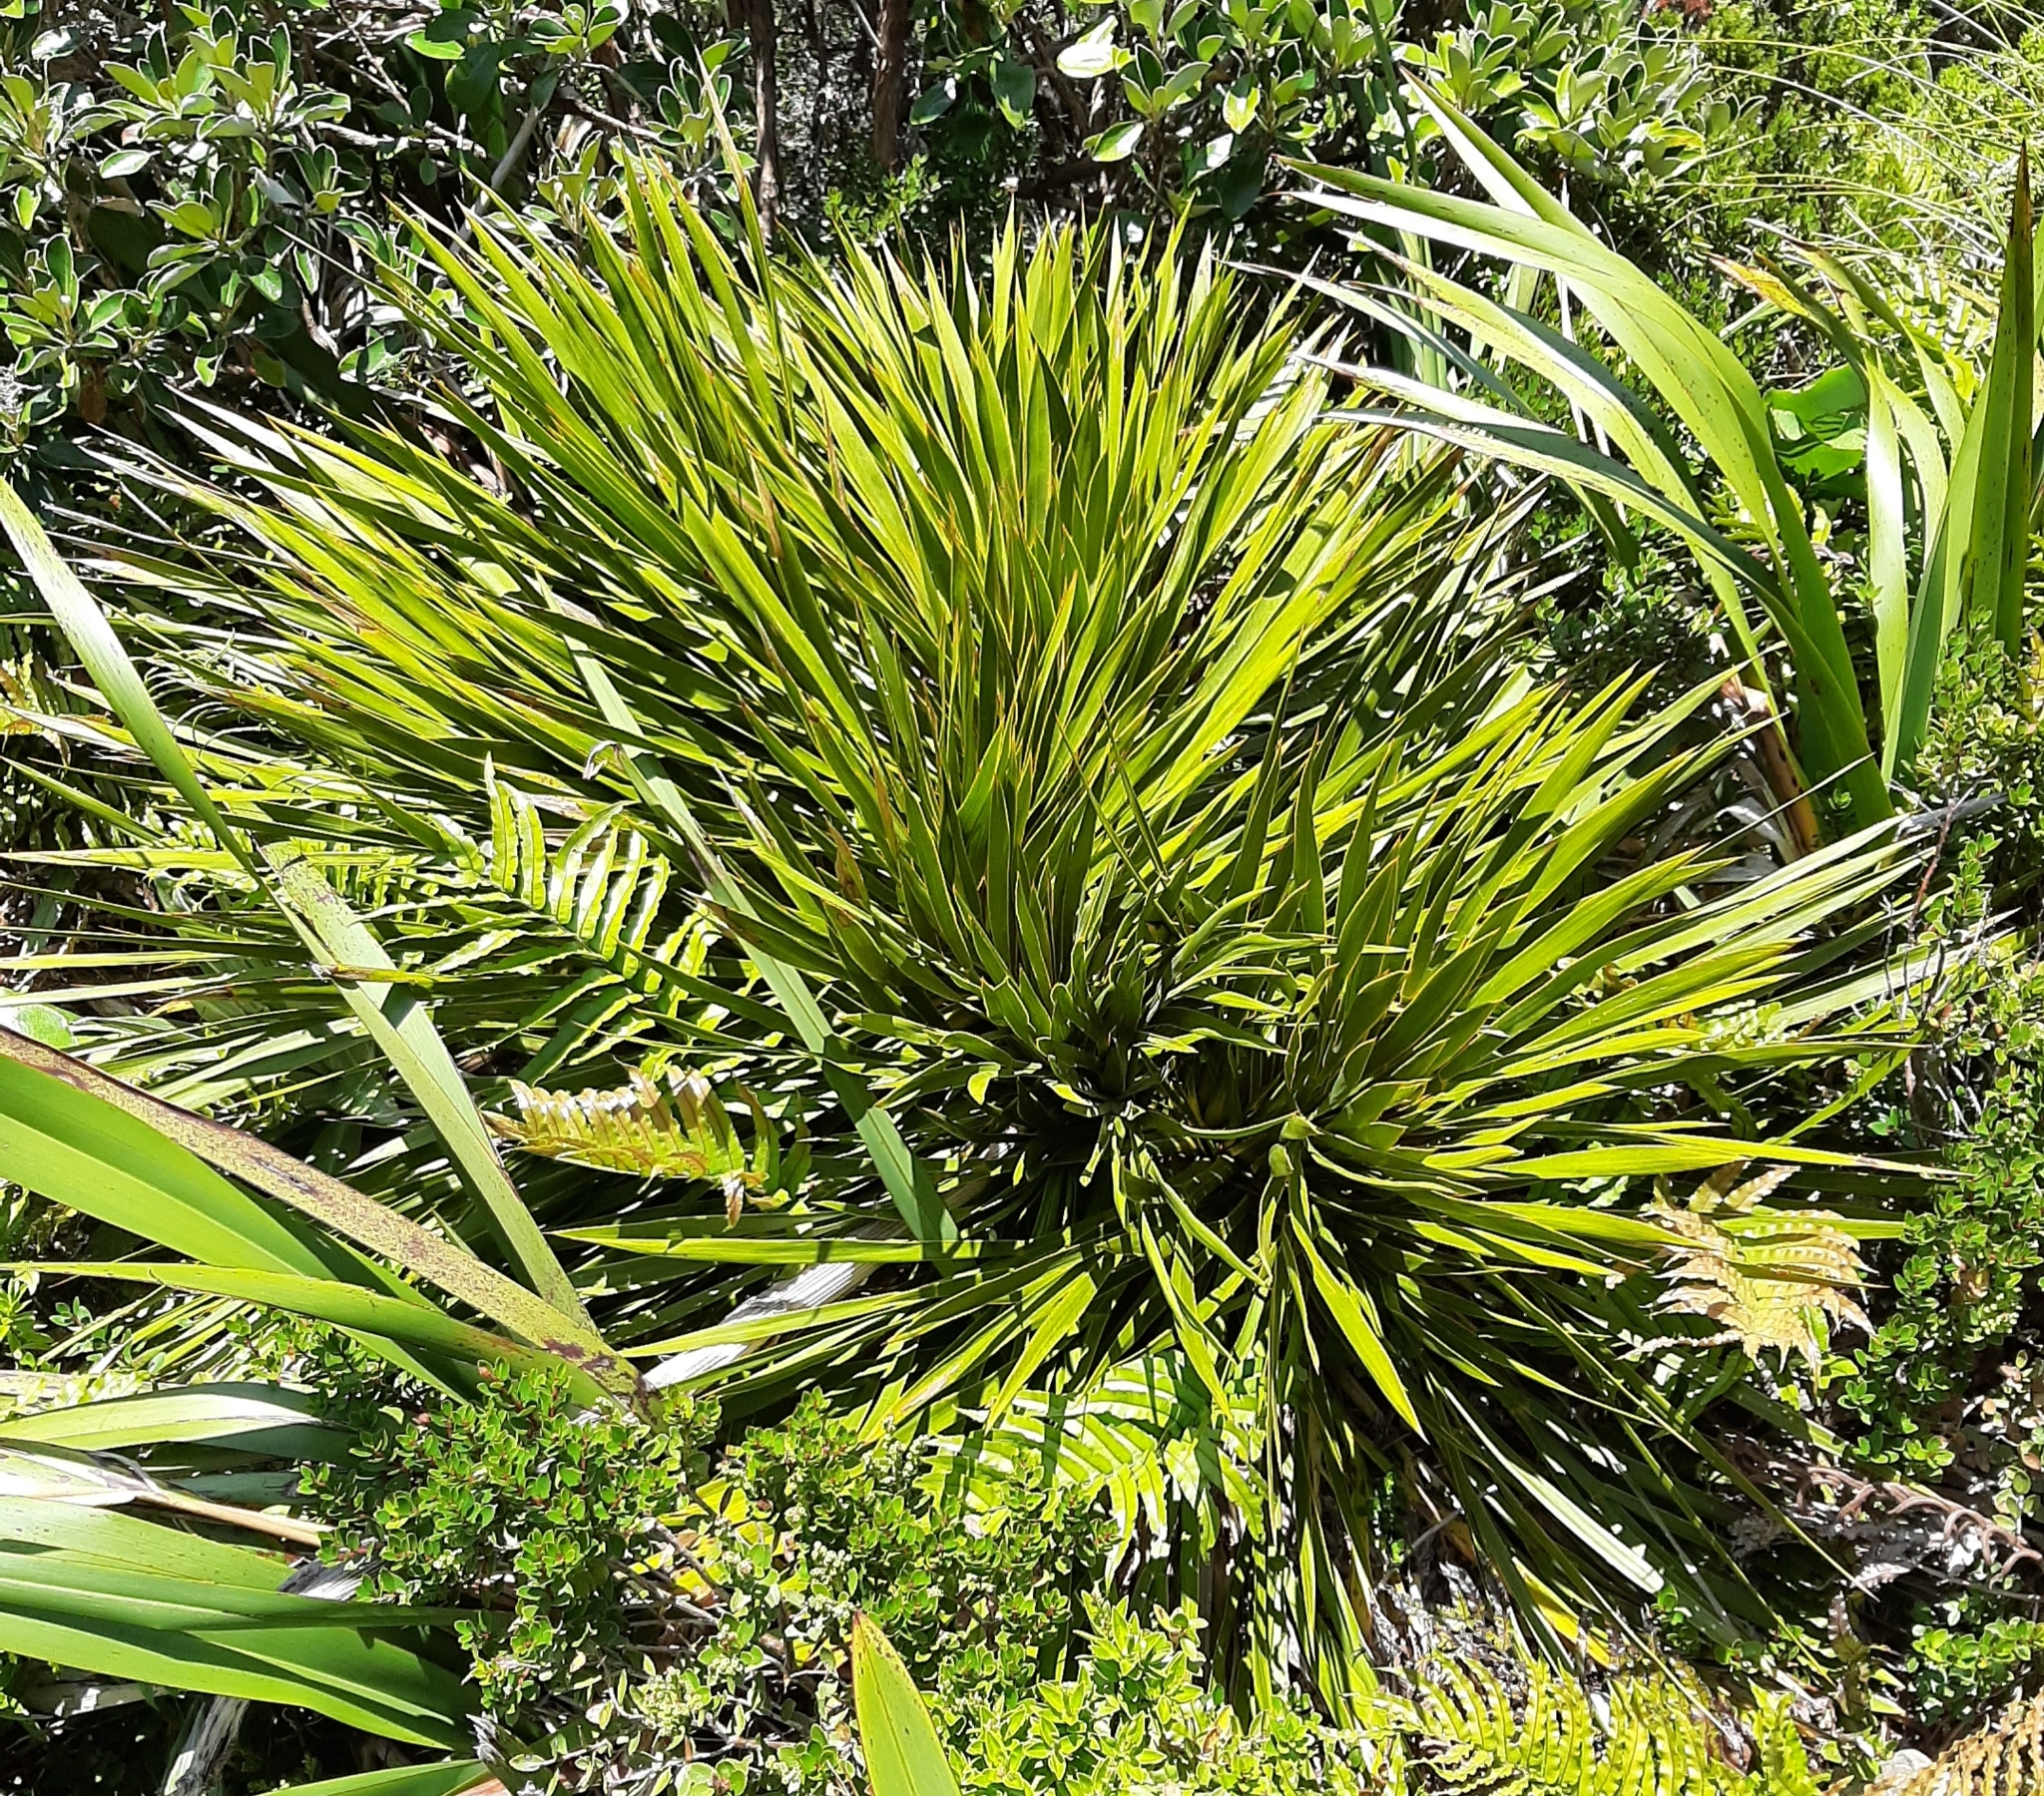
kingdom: Plantae
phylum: Tracheophyta
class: Magnoliopsida
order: Apiales
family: Apiaceae
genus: Aciphylla
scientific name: Aciphylla horrida
